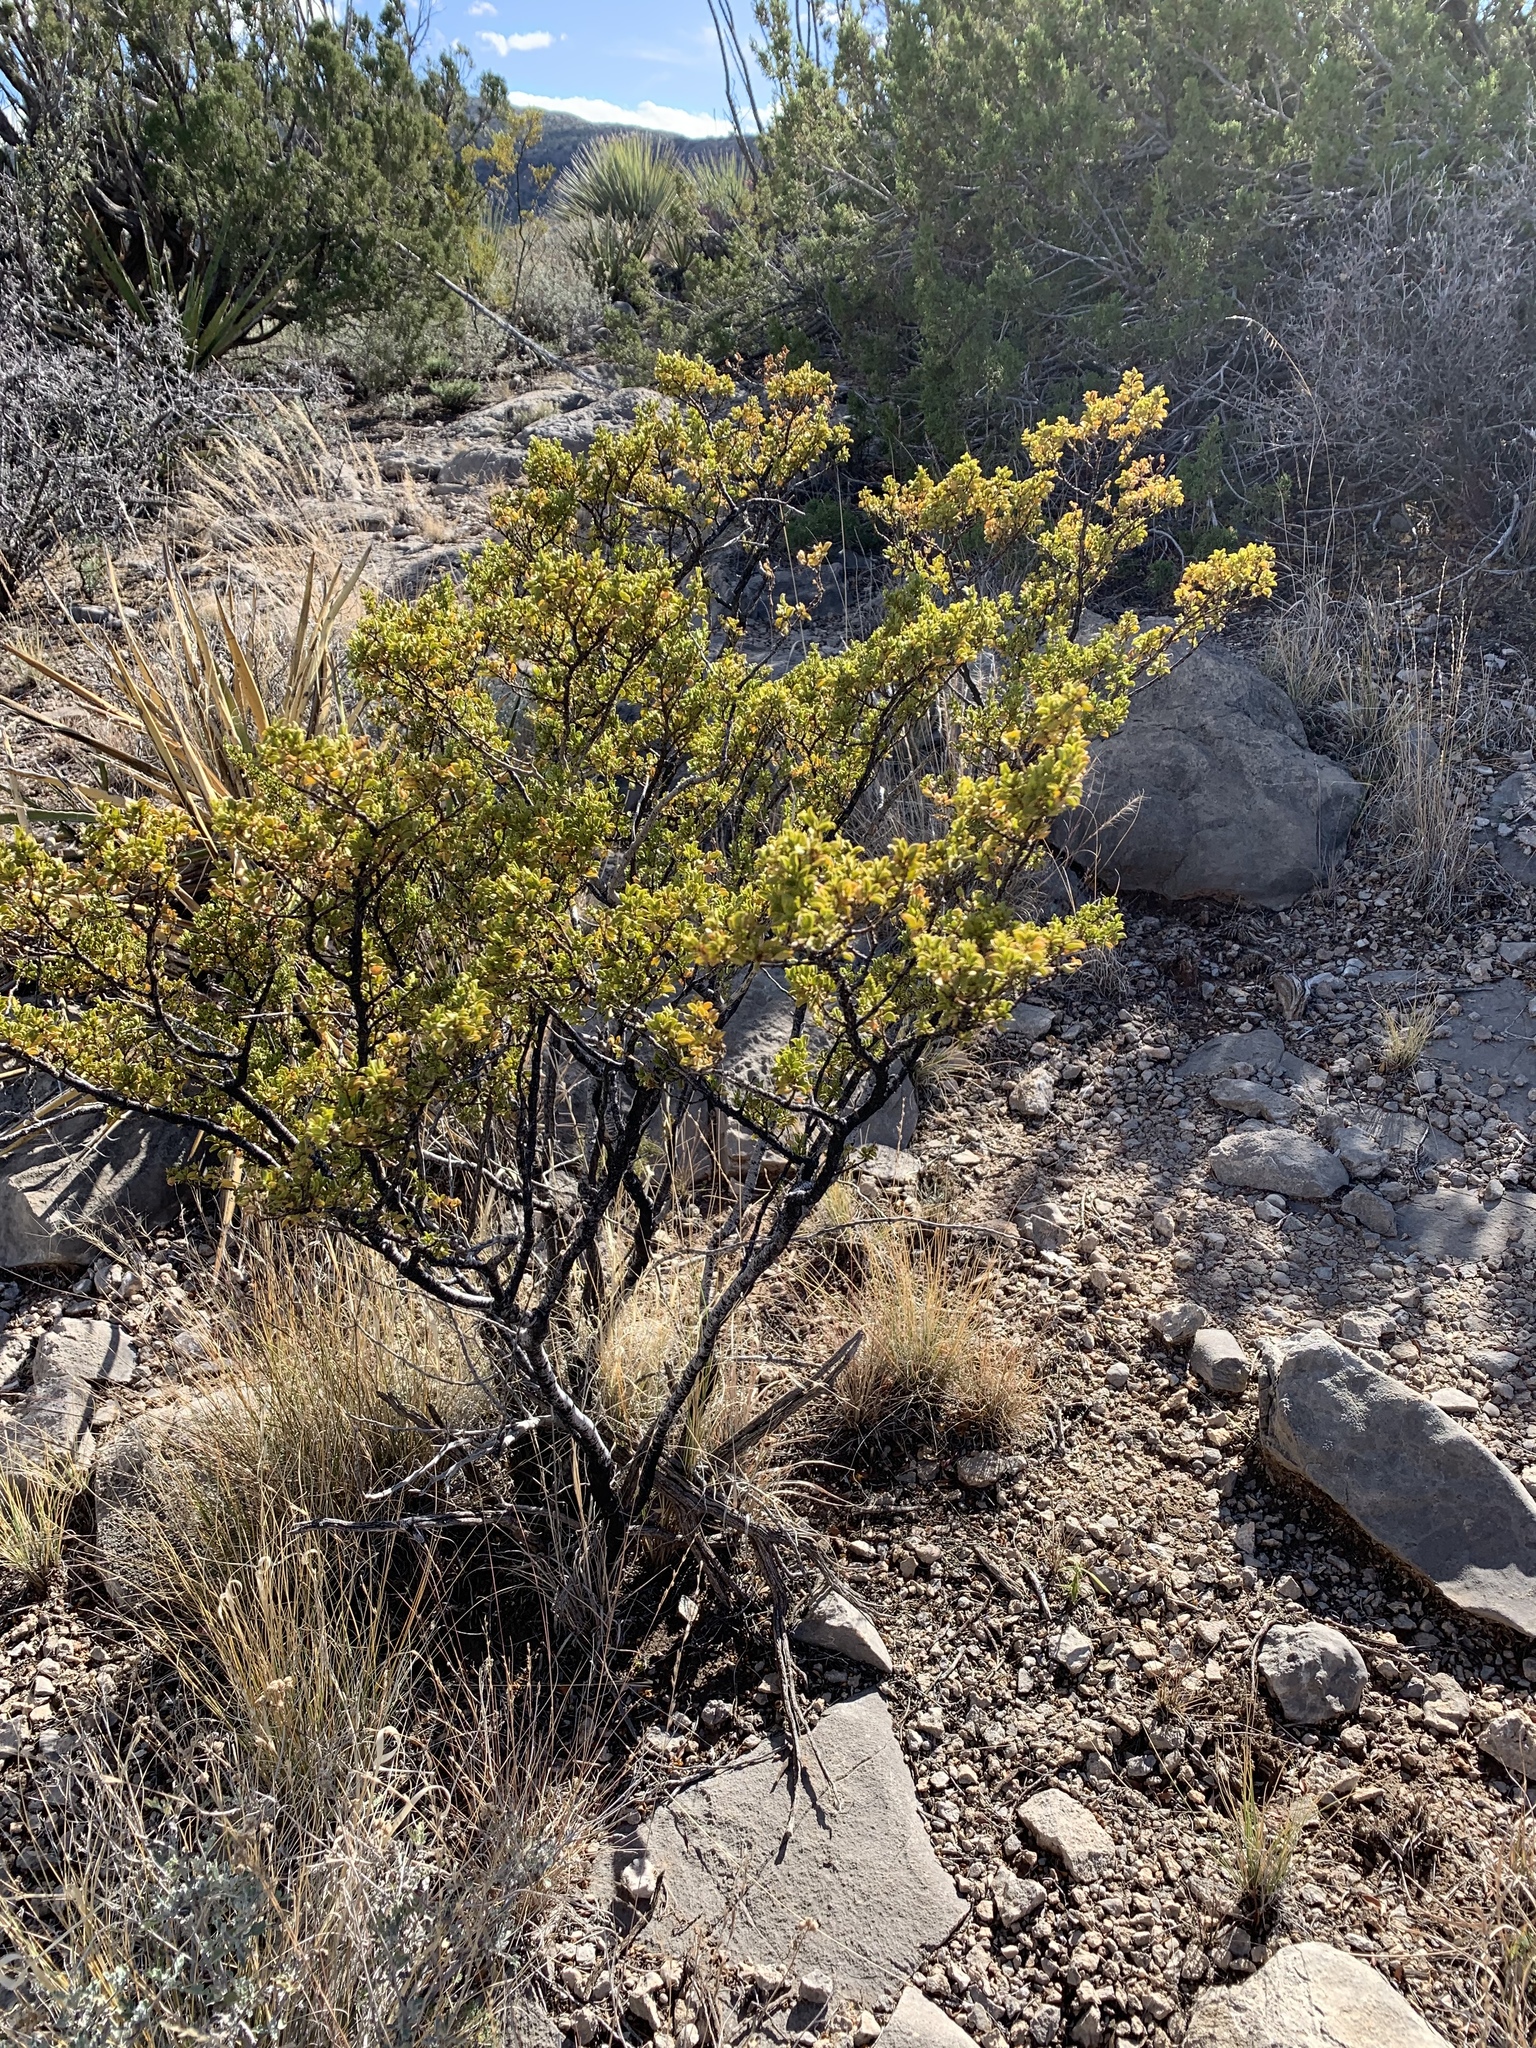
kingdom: Plantae
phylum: Tracheophyta
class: Magnoliopsida
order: Zygophyllales
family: Zygophyllaceae
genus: Larrea
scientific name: Larrea tridentata
